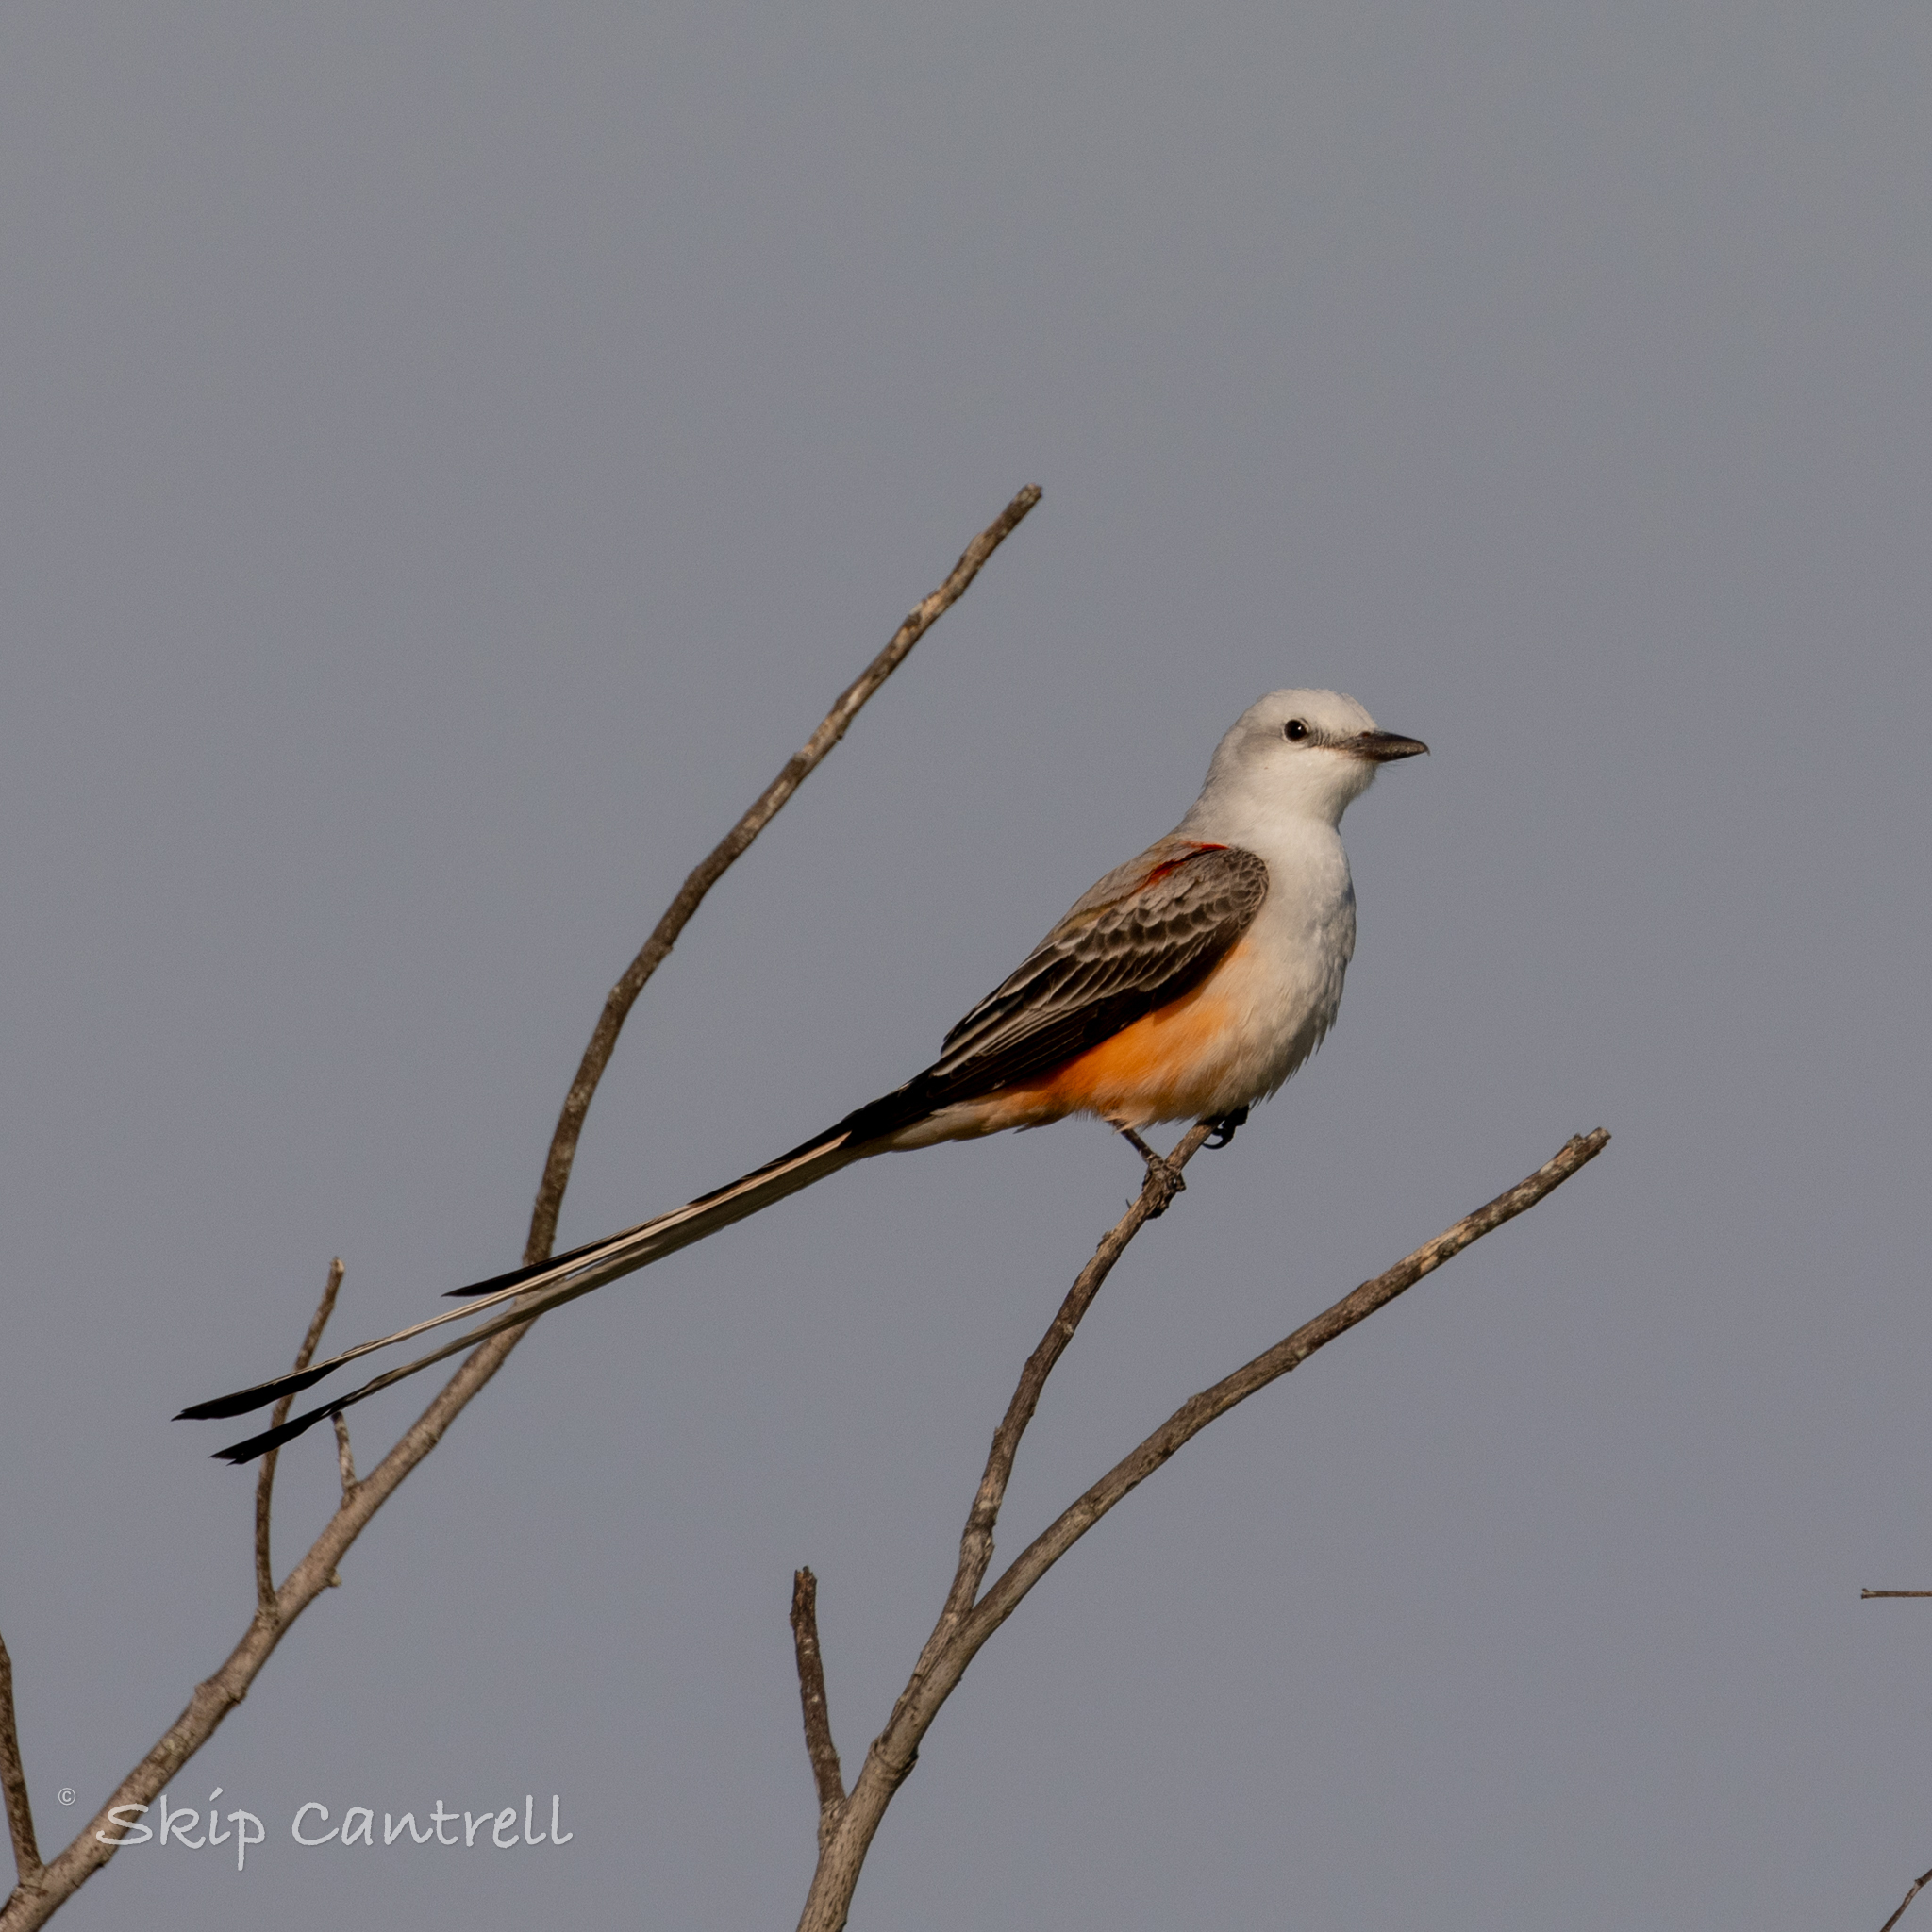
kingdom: Animalia
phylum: Chordata
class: Aves
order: Passeriformes
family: Tyrannidae
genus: Tyrannus
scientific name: Tyrannus forficatus
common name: Scissor-tailed flycatcher
